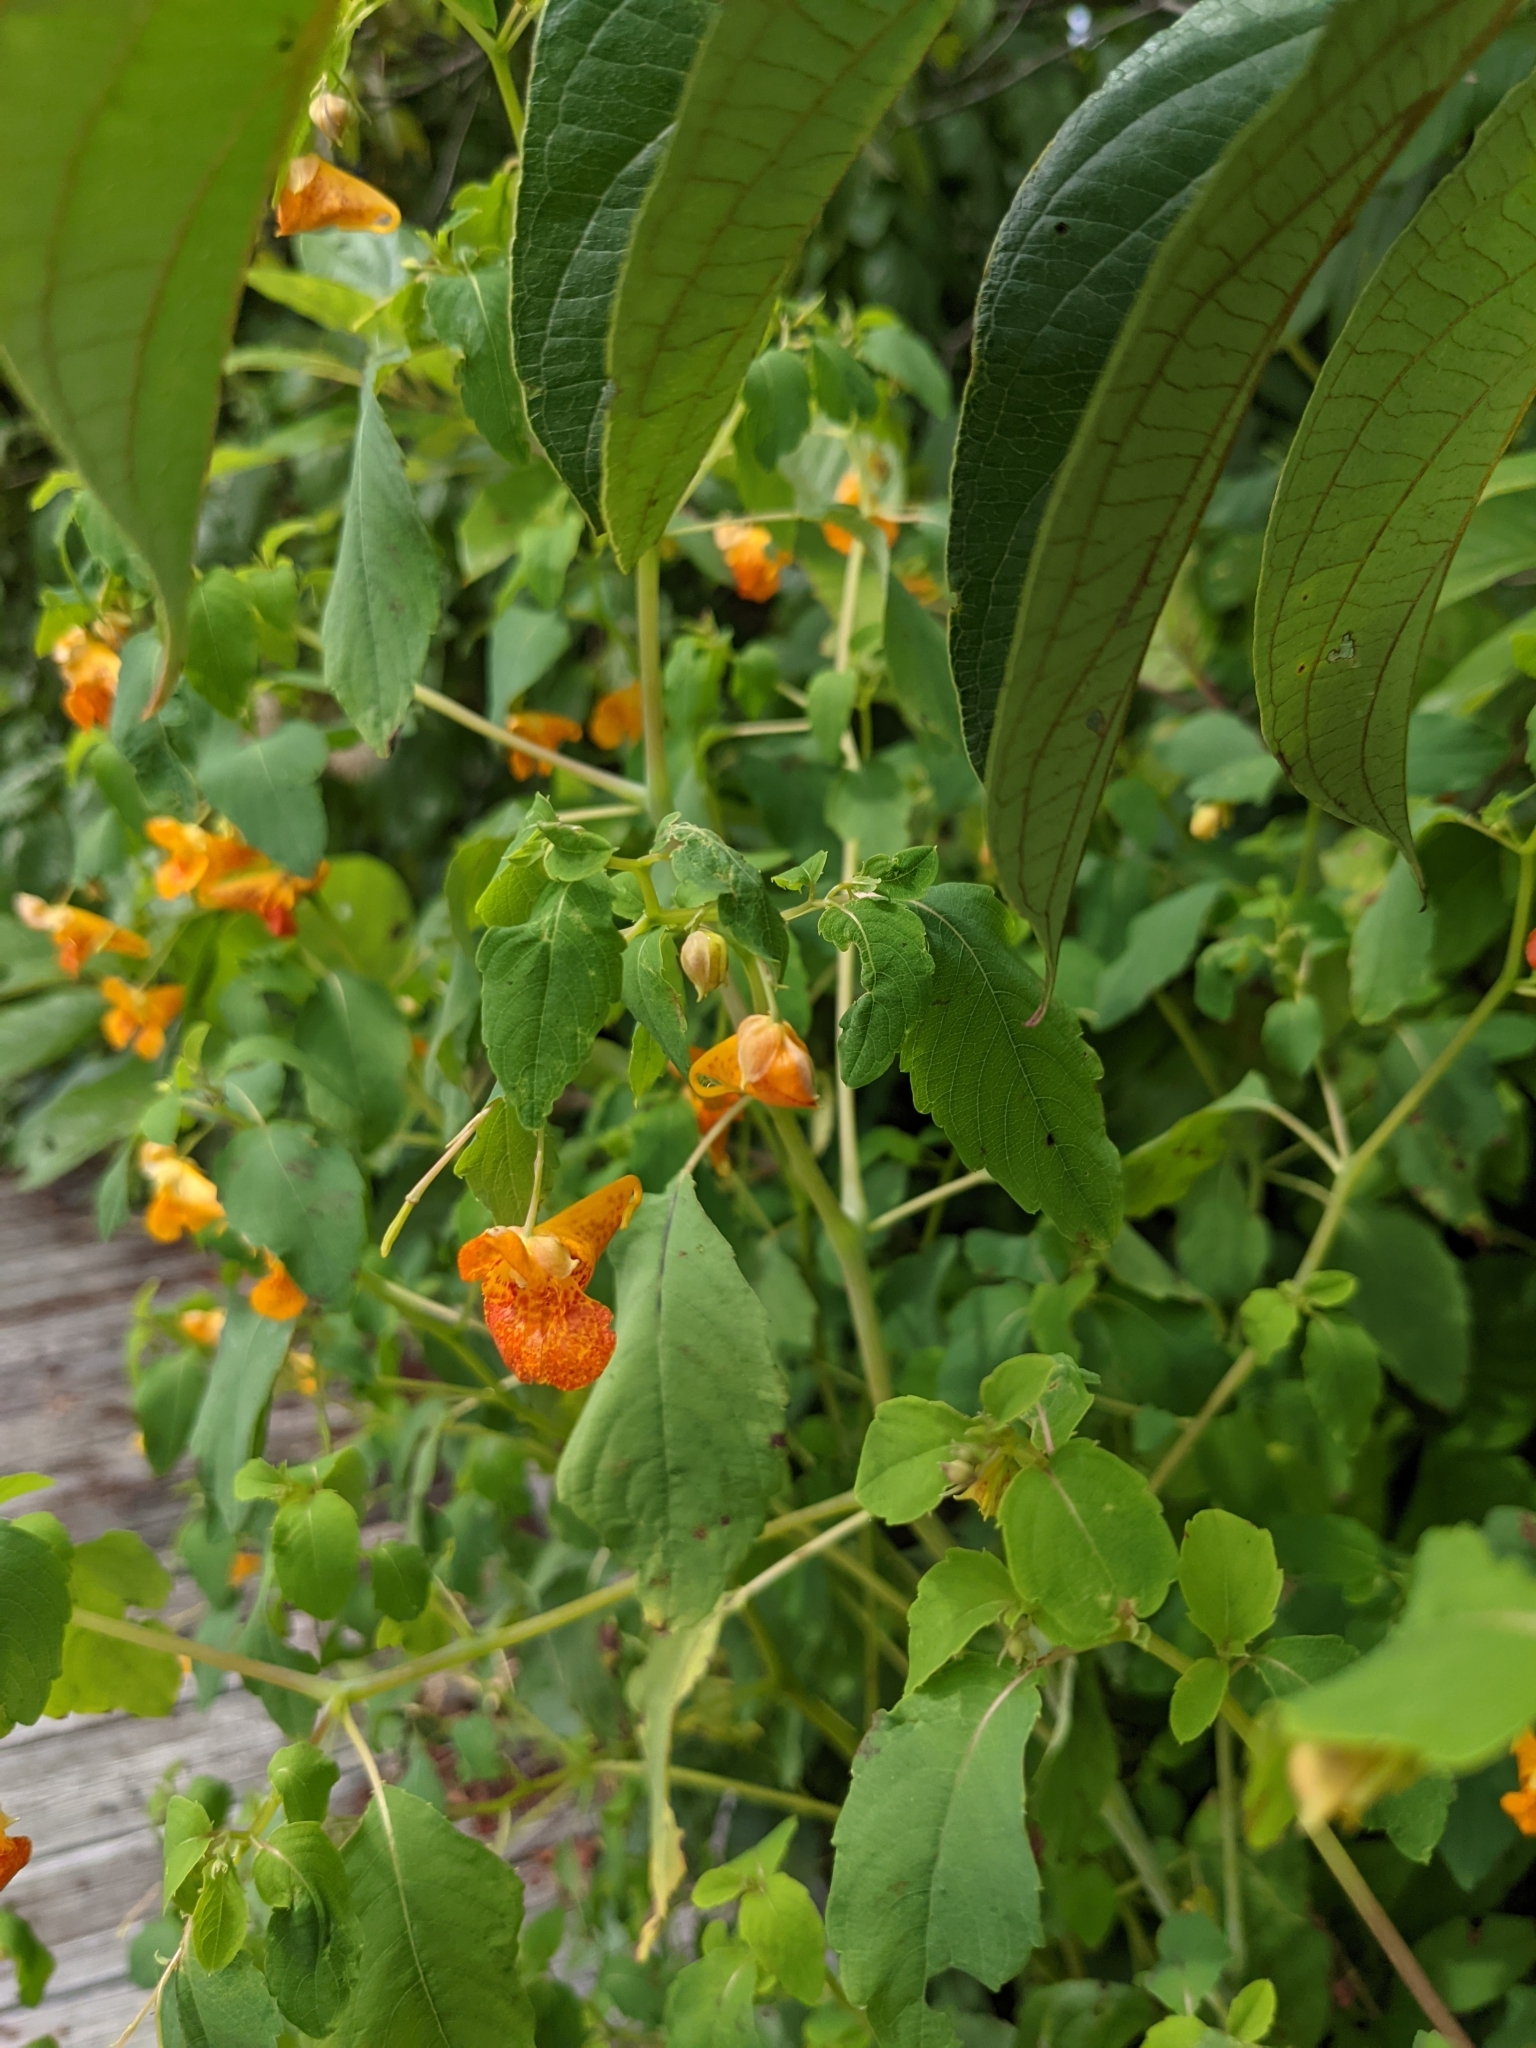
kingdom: Plantae
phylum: Tracheophyta
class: Magnoliopsida
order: Ericales
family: Balsaminaceae
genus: Impatiens
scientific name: Impatiens capensis
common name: Orange balsam
